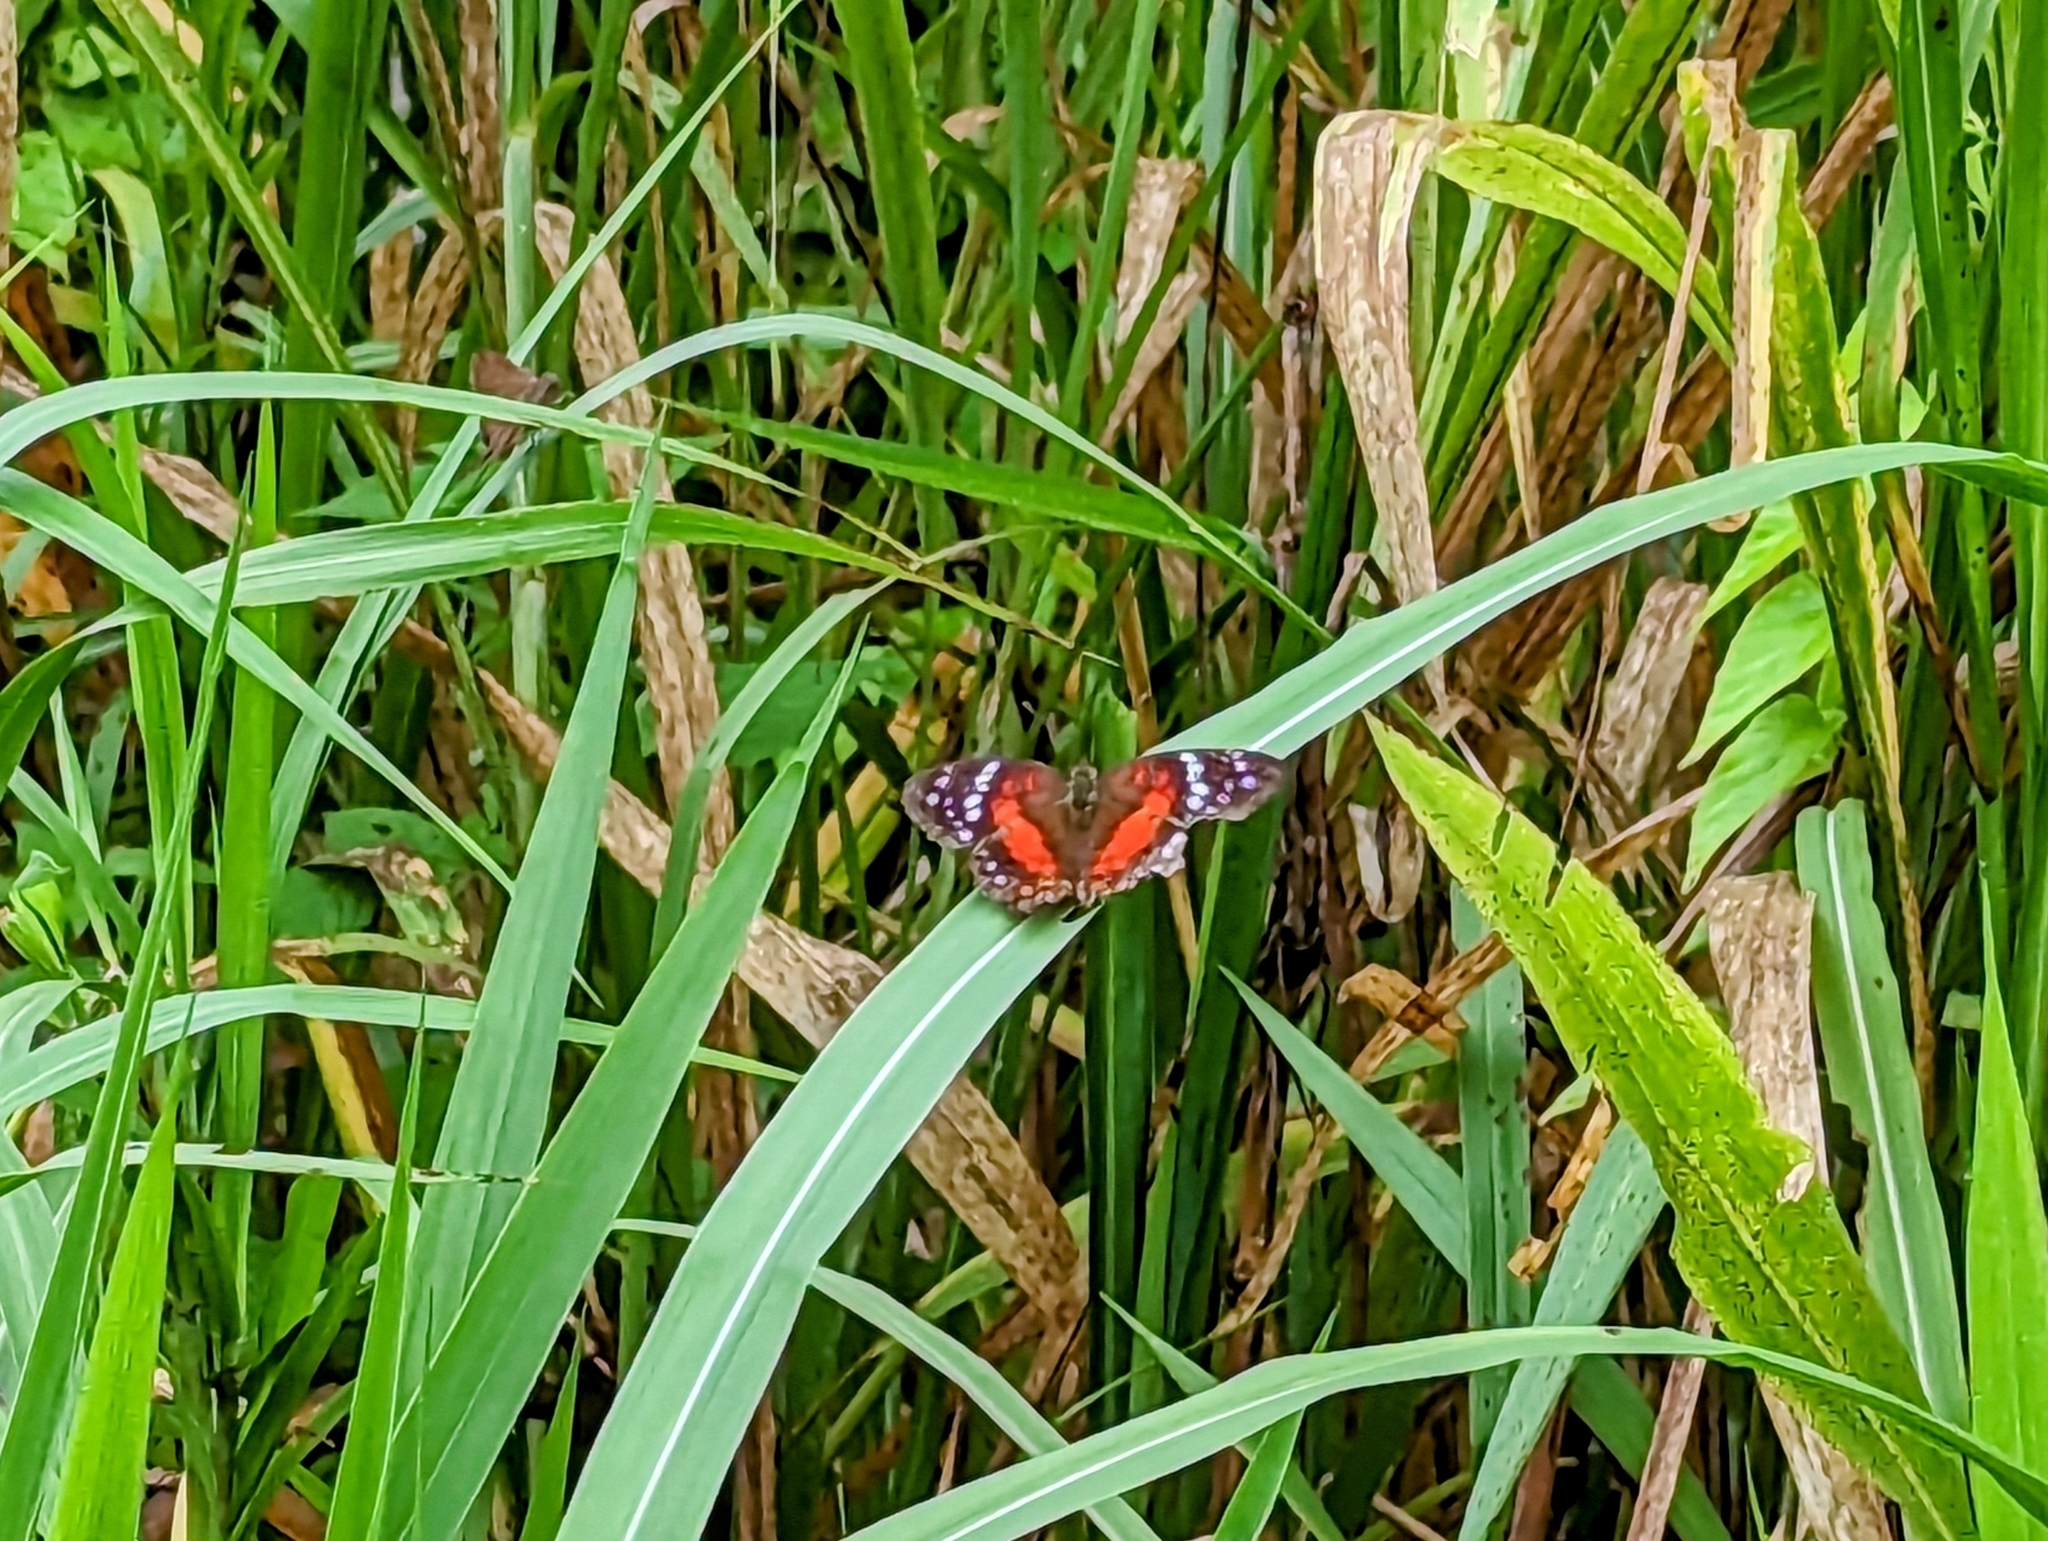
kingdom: Animalia
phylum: Arthropoda
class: Insecta
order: Lepidoptera
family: Nymphalidae
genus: Anartia
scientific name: Anartia amathea
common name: Red peacock
